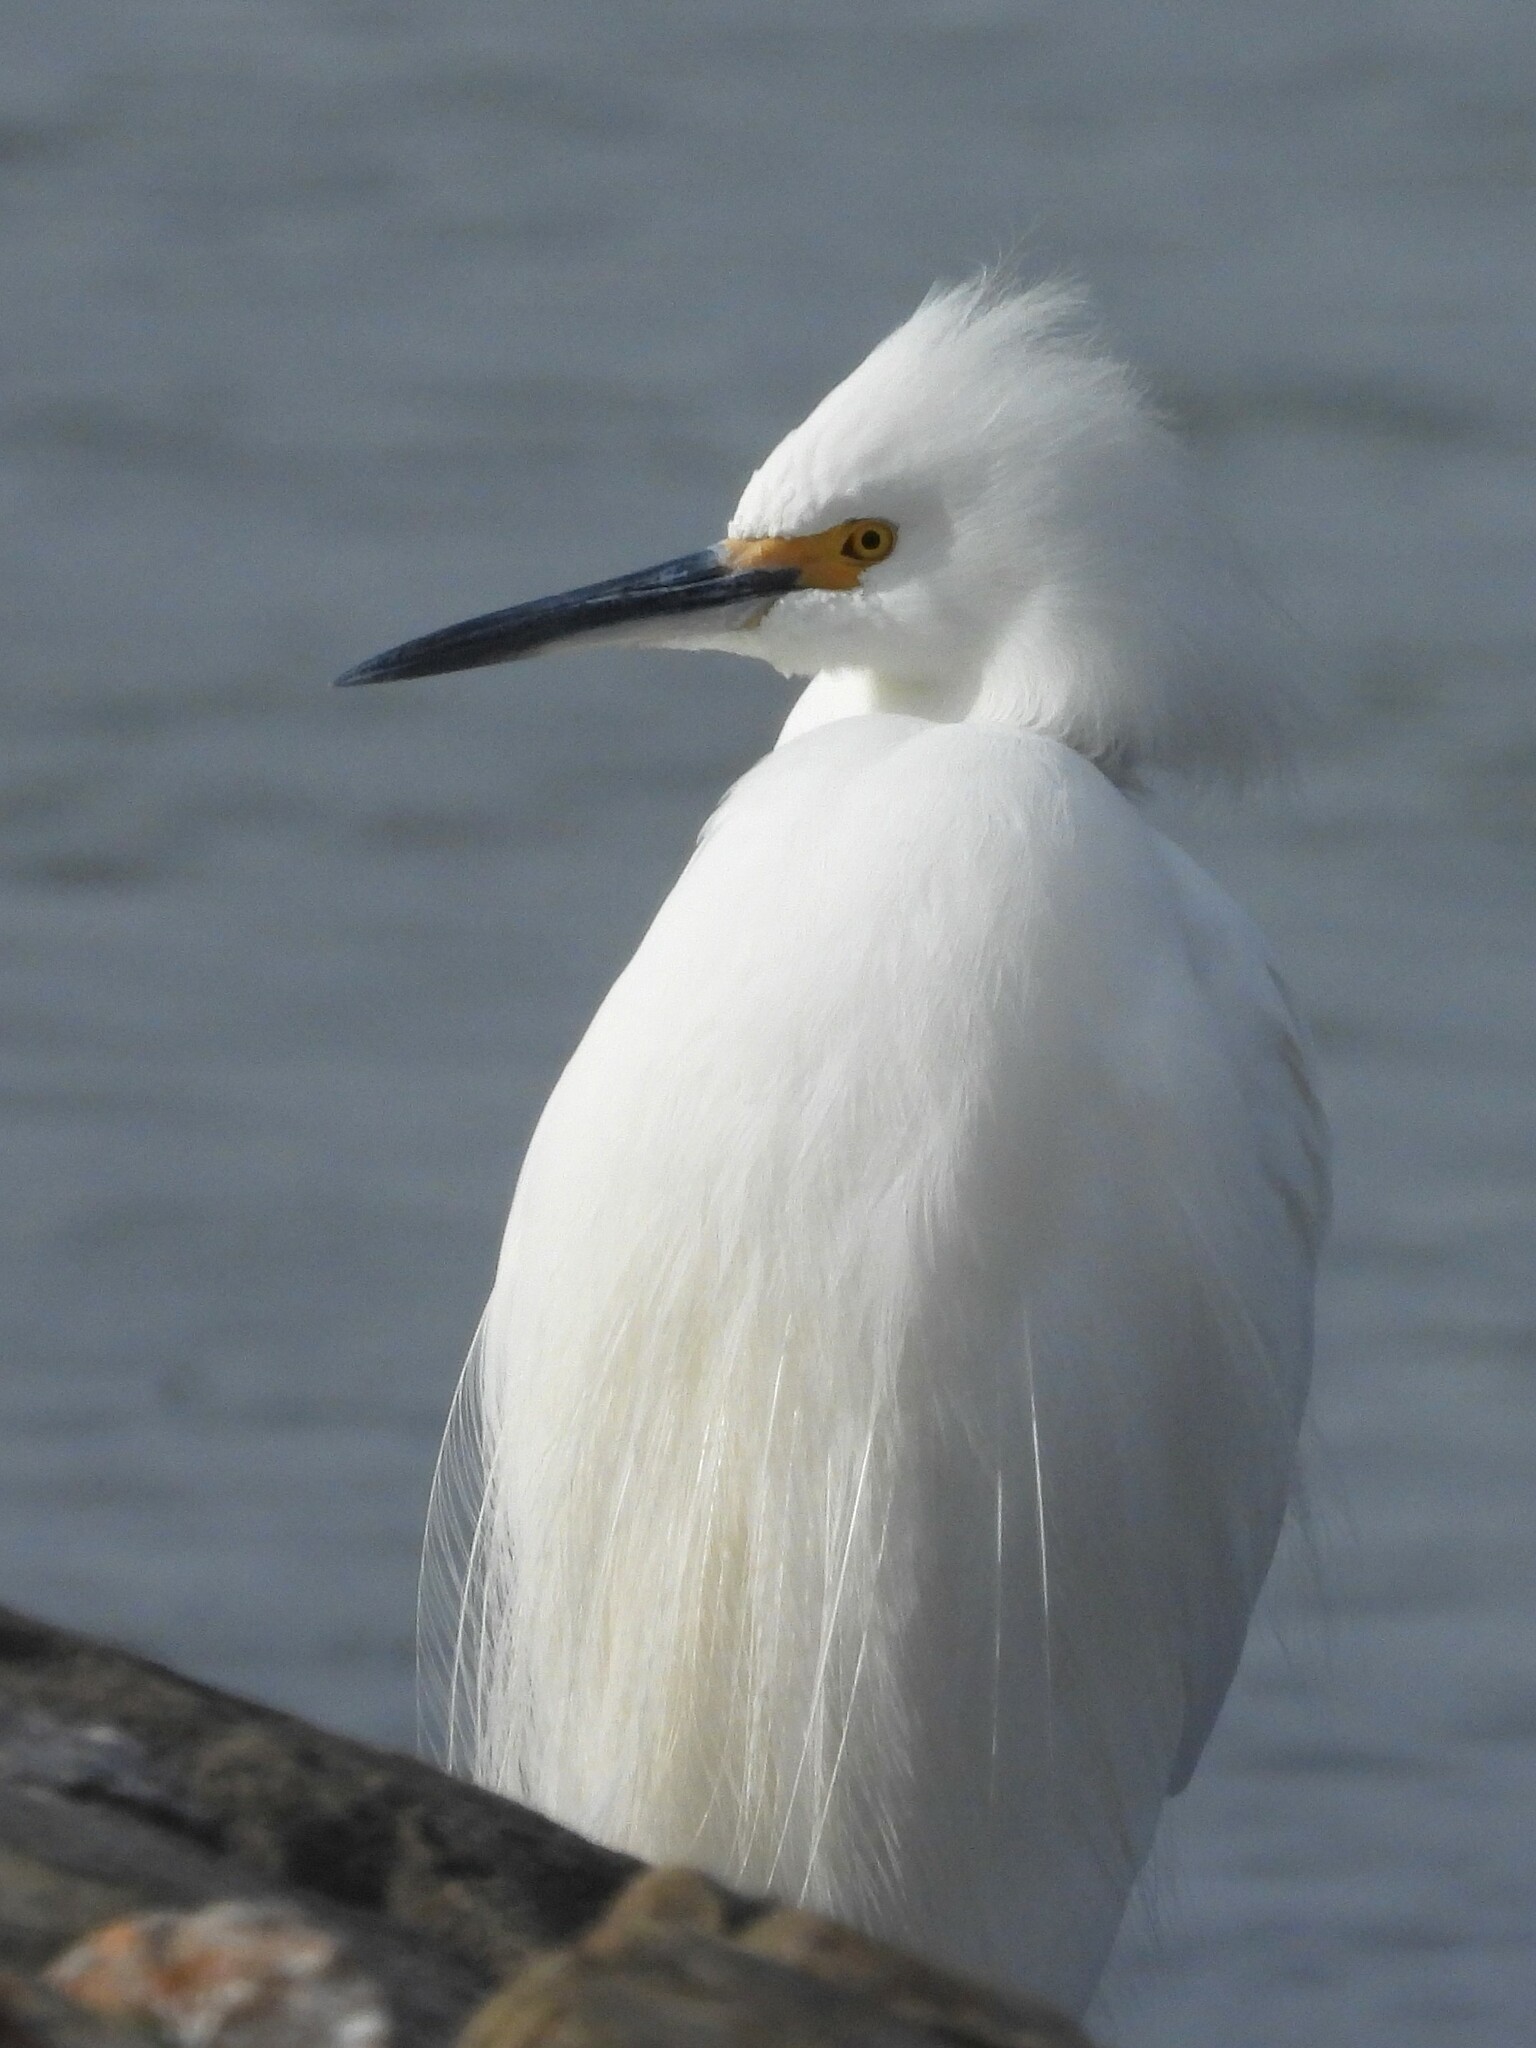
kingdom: Animalia
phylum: Chordata
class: Aves
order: Pelecaniformes
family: Ardeidae
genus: Egretta
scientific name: Egretta thula
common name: Snowy egret
